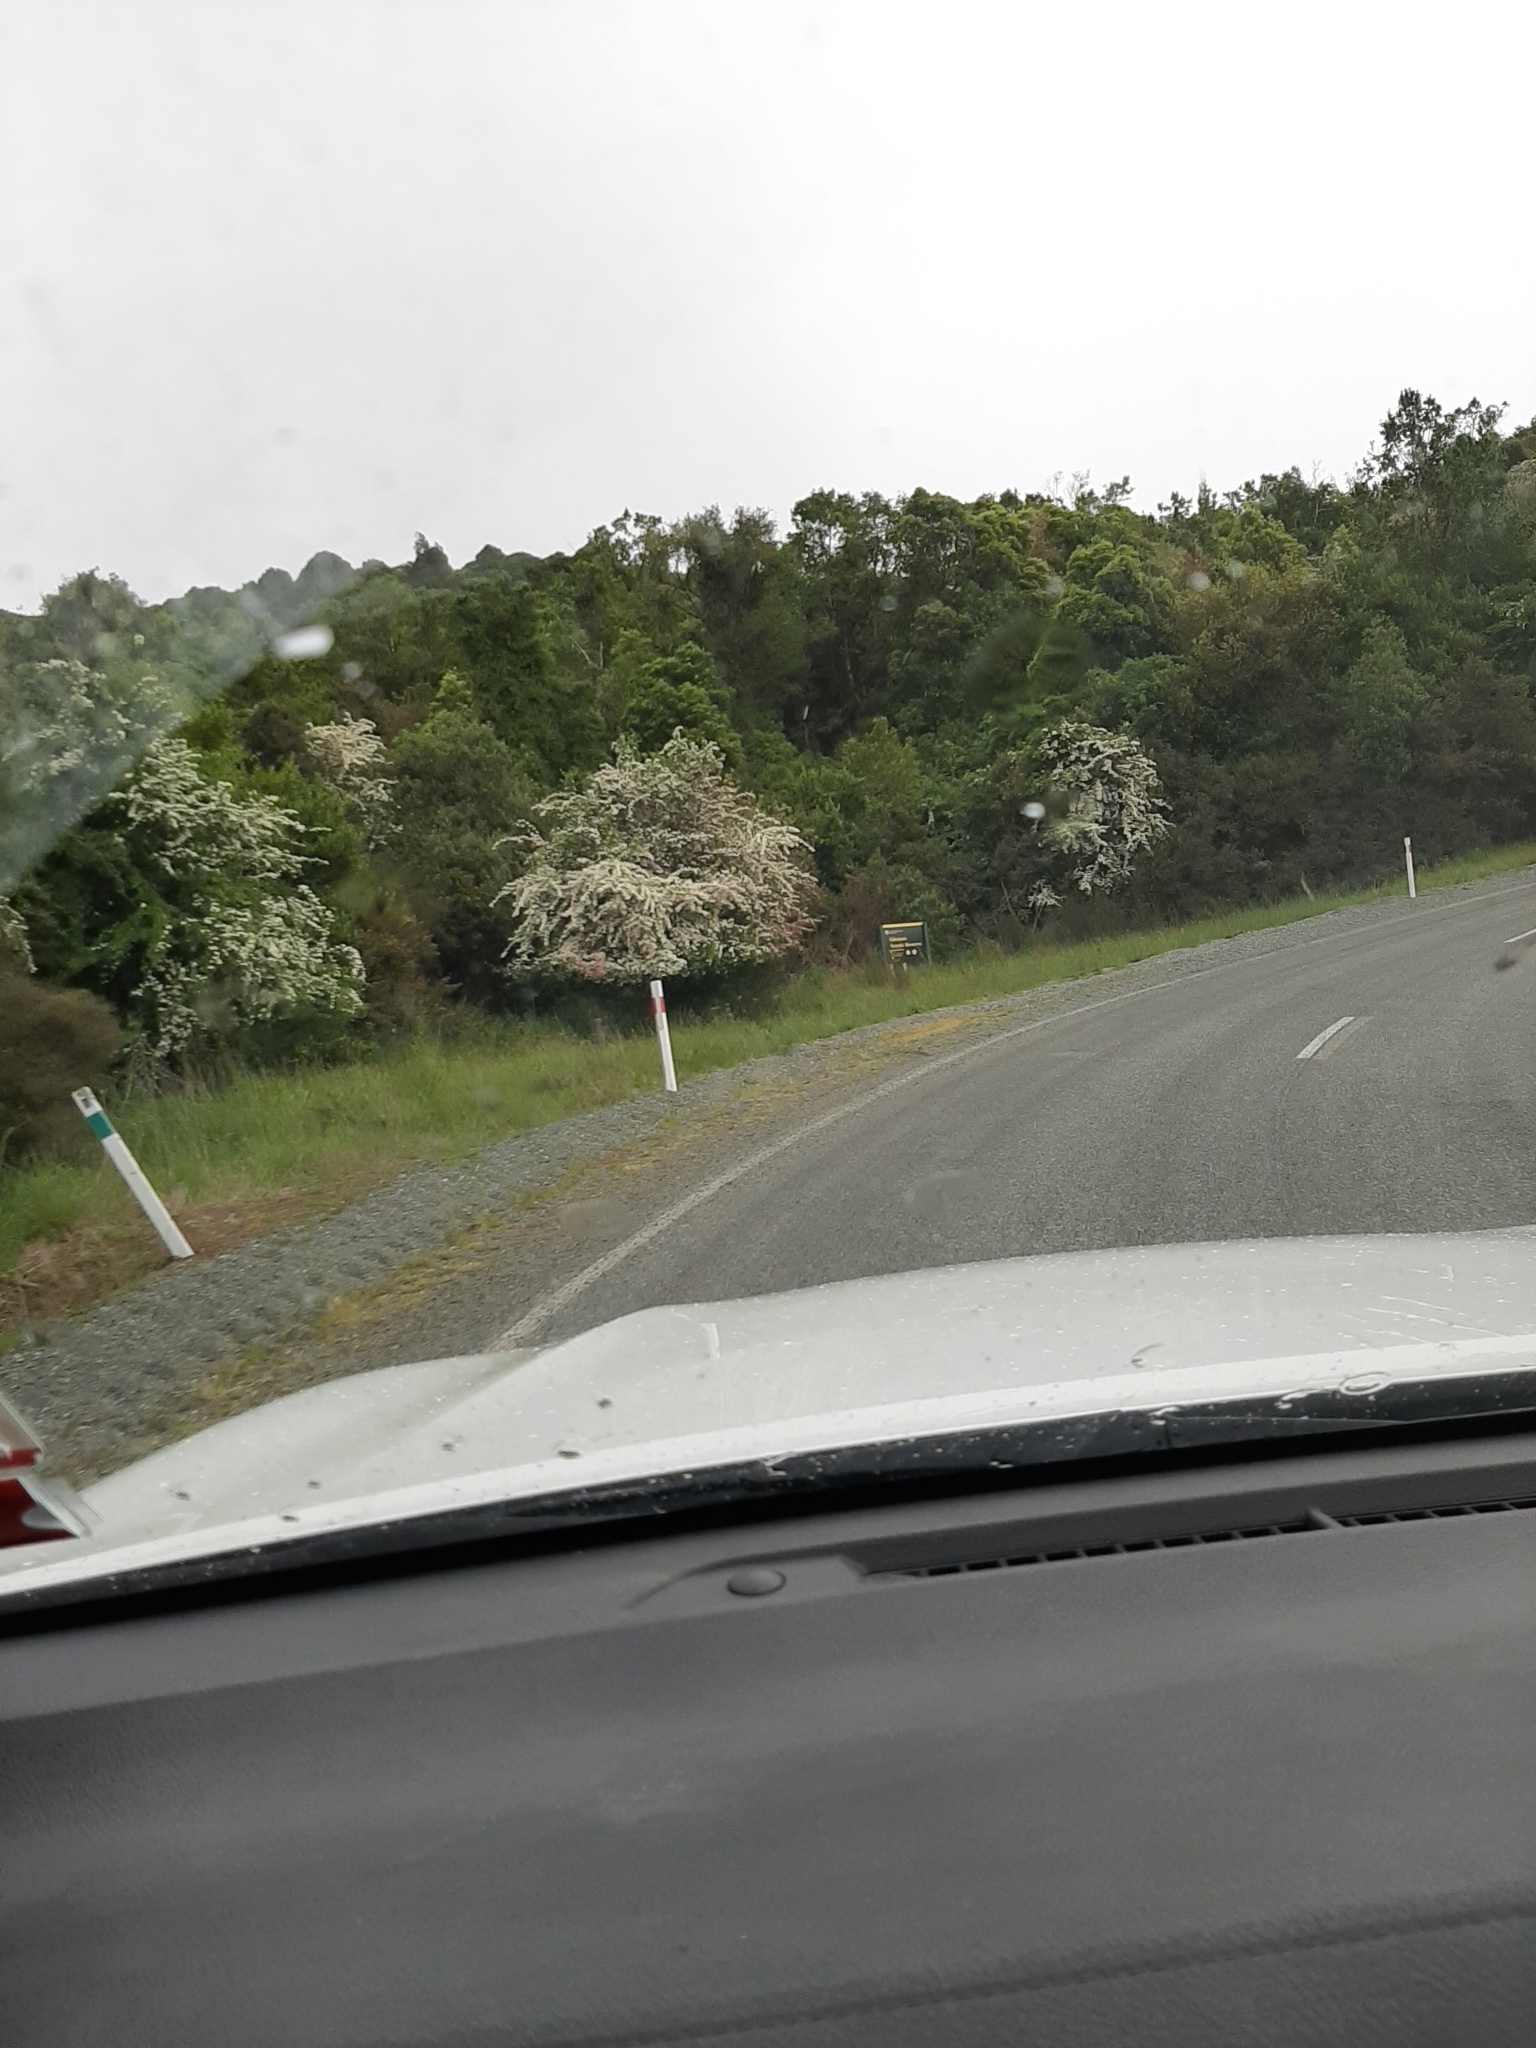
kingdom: Plantae
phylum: Tracheophyta
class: Magnoliopsida
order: Rosales
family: Rosaceae
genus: Crataegus
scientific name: Crataegus monogyna
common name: Hawthorn
